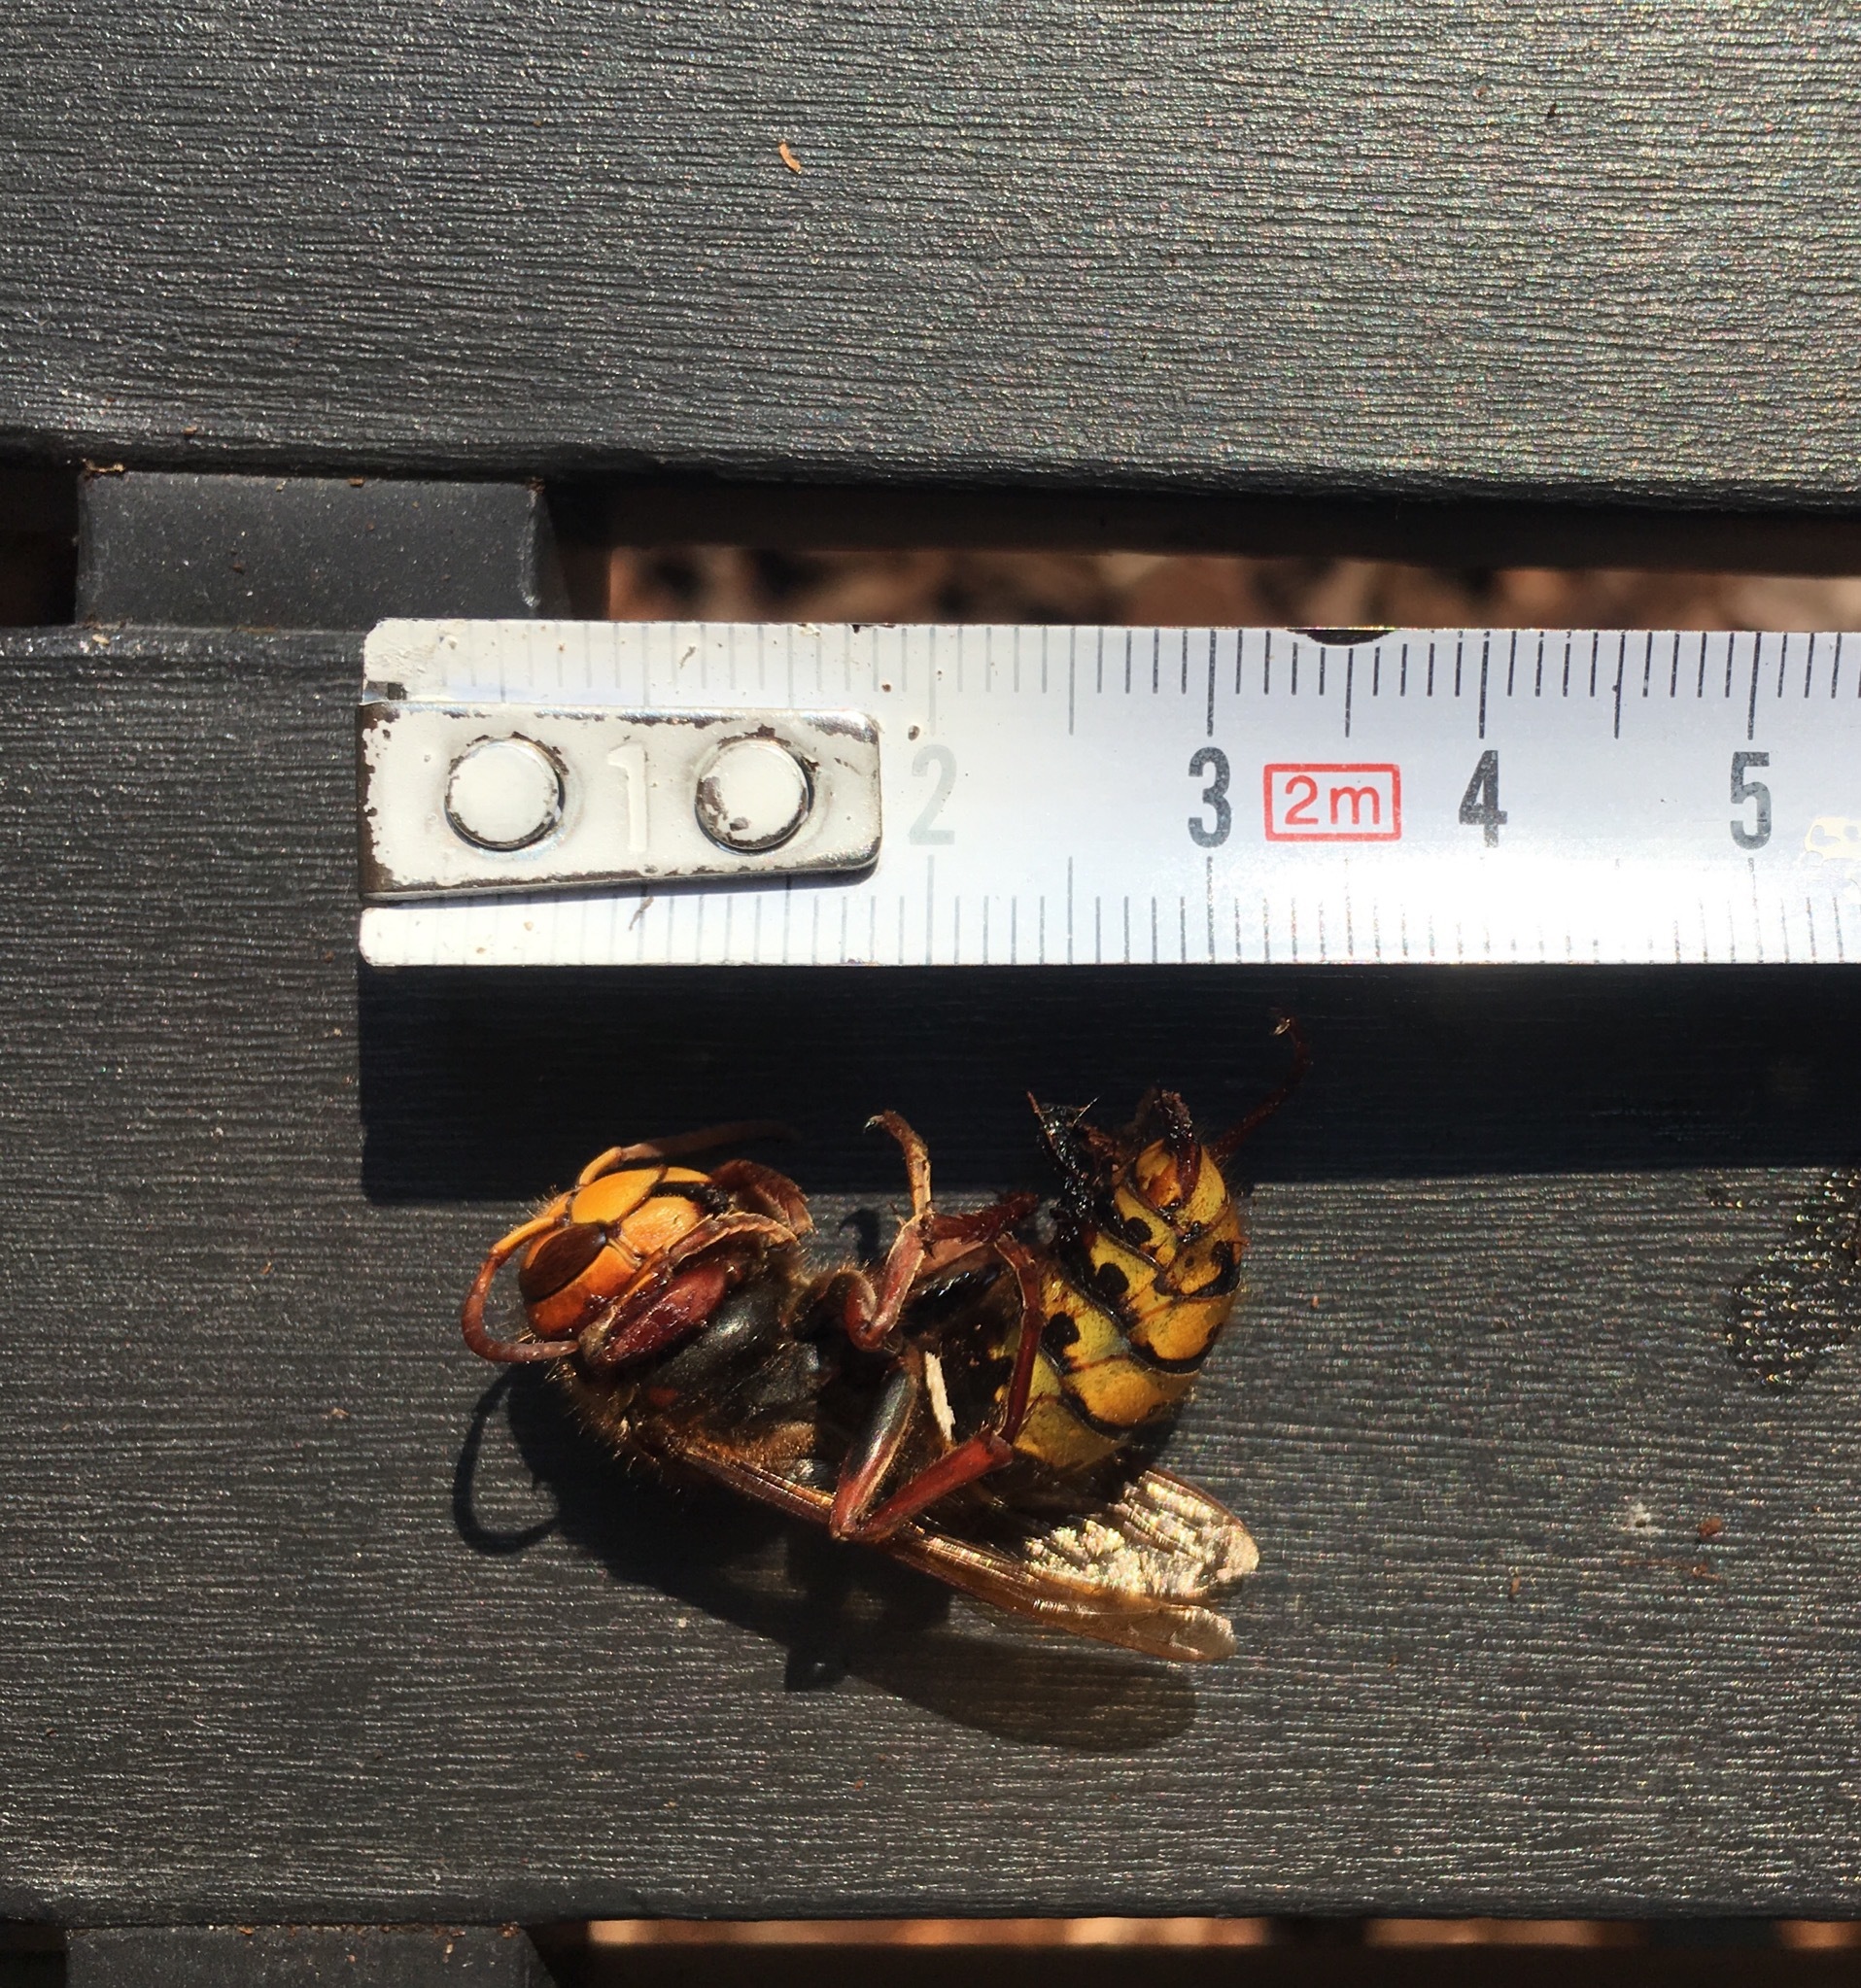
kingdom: Animalia
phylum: Arthropoda
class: Insecta
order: Hymenoptera
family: Vespidae
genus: Vespa
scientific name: Vespa crabro
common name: Hornet
